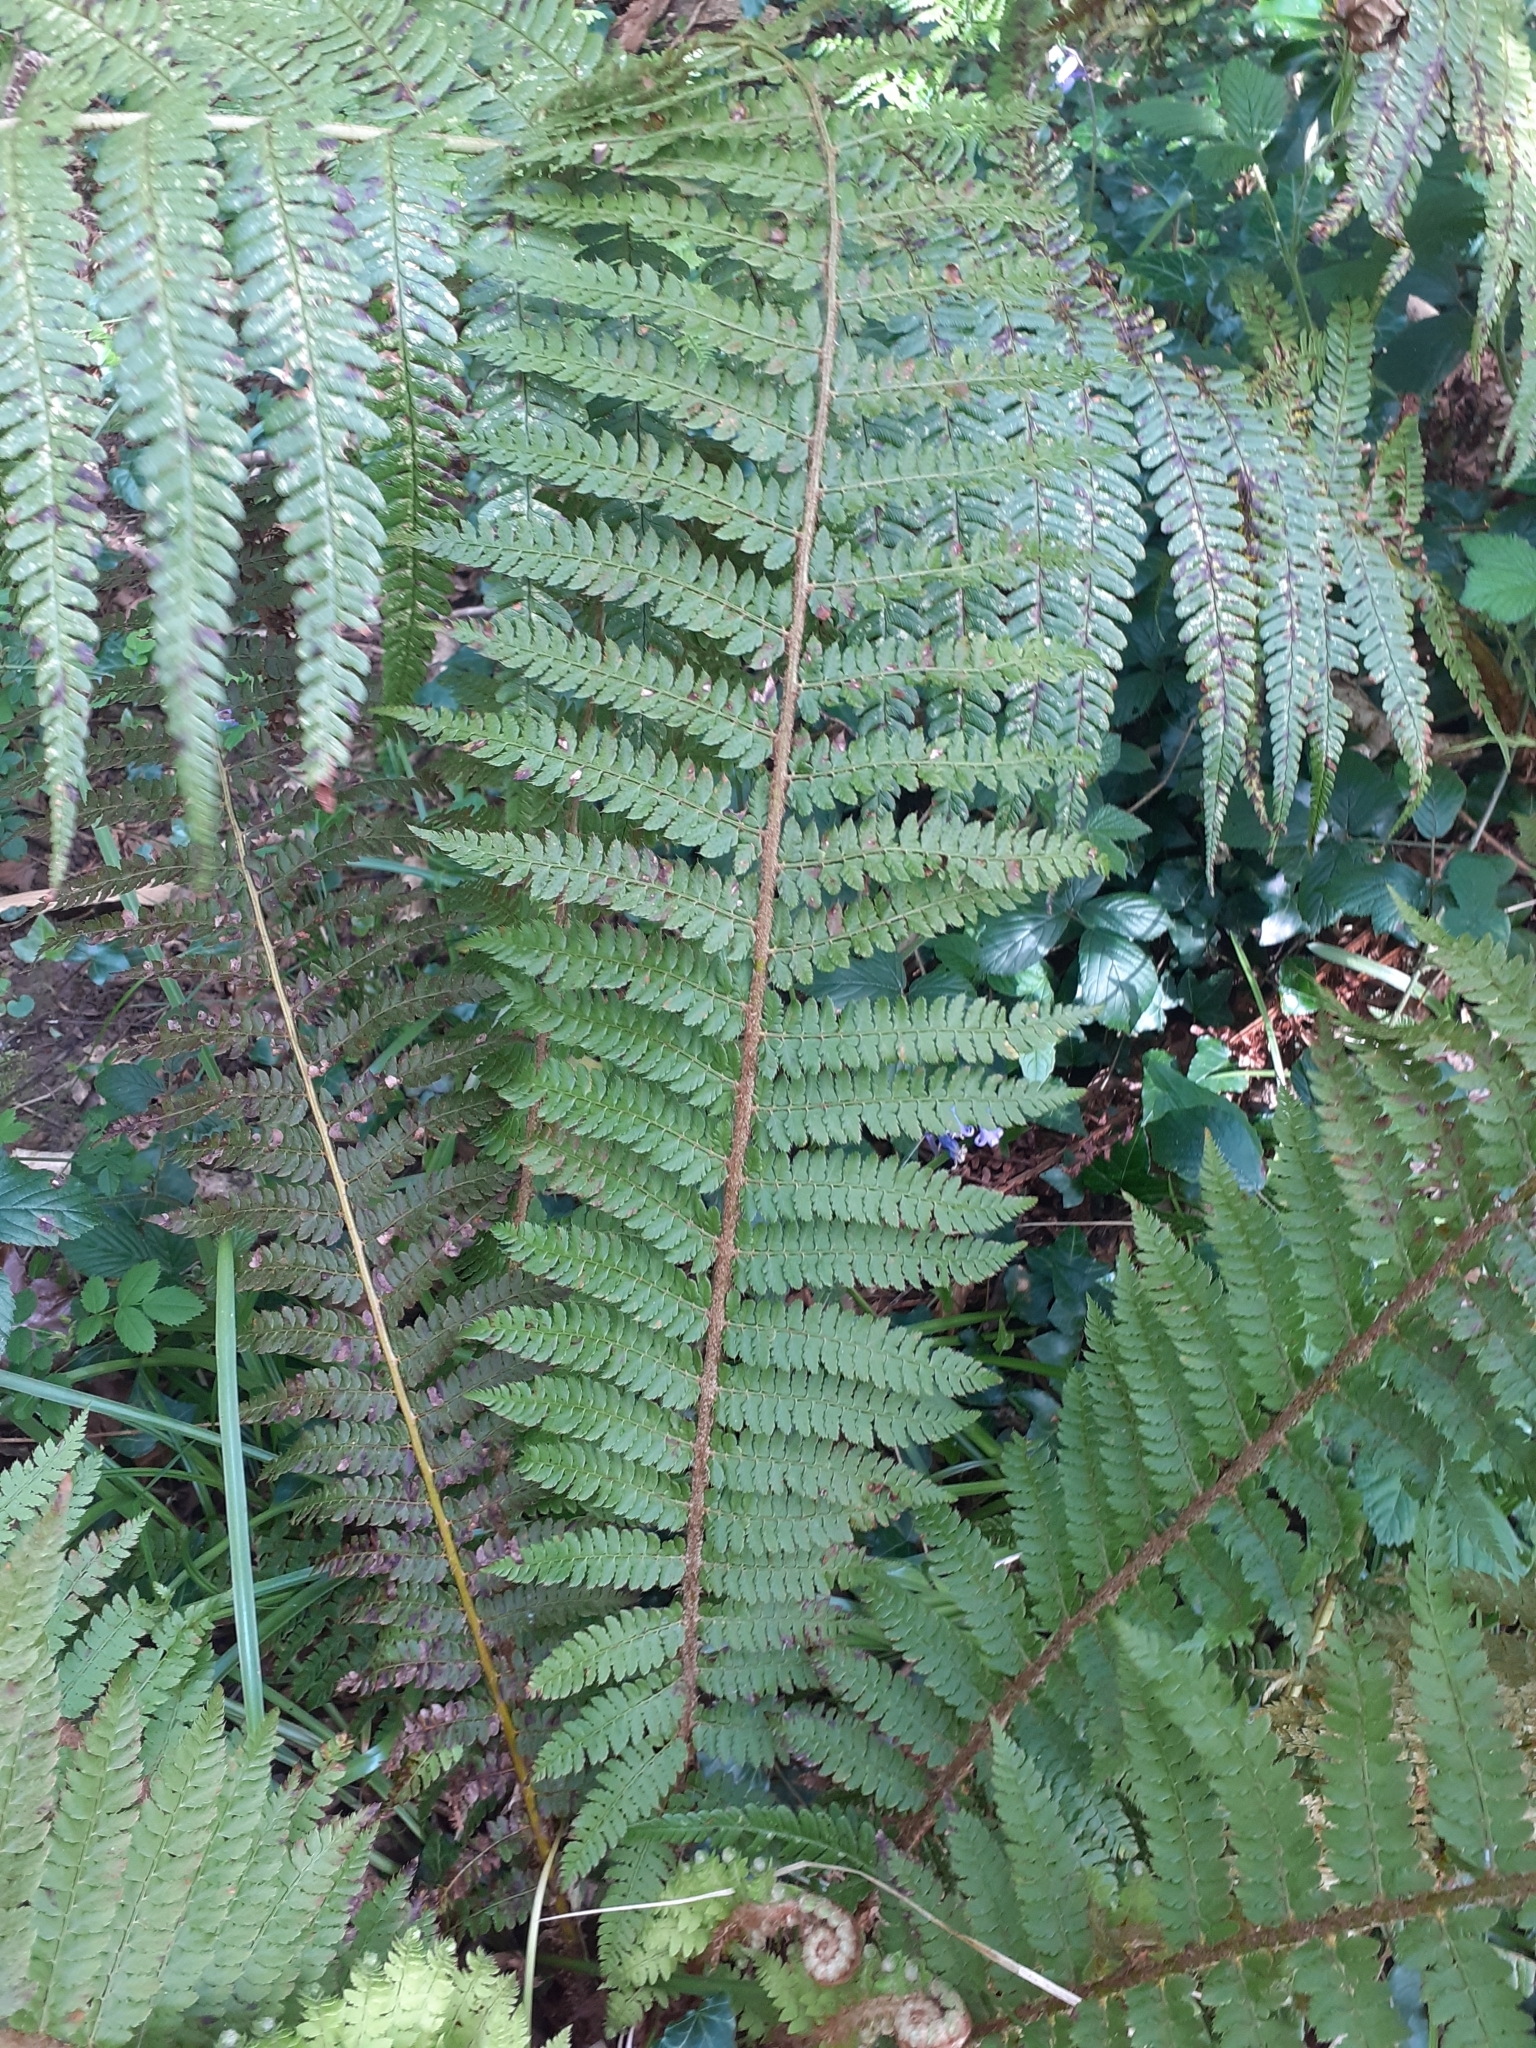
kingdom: Plantae
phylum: Tracheophyta
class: Polypodiopsida
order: Polypodiales
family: Dryopteridaceae
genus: Polystichum
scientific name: Polystichum setiferum
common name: Soft shield-fern
